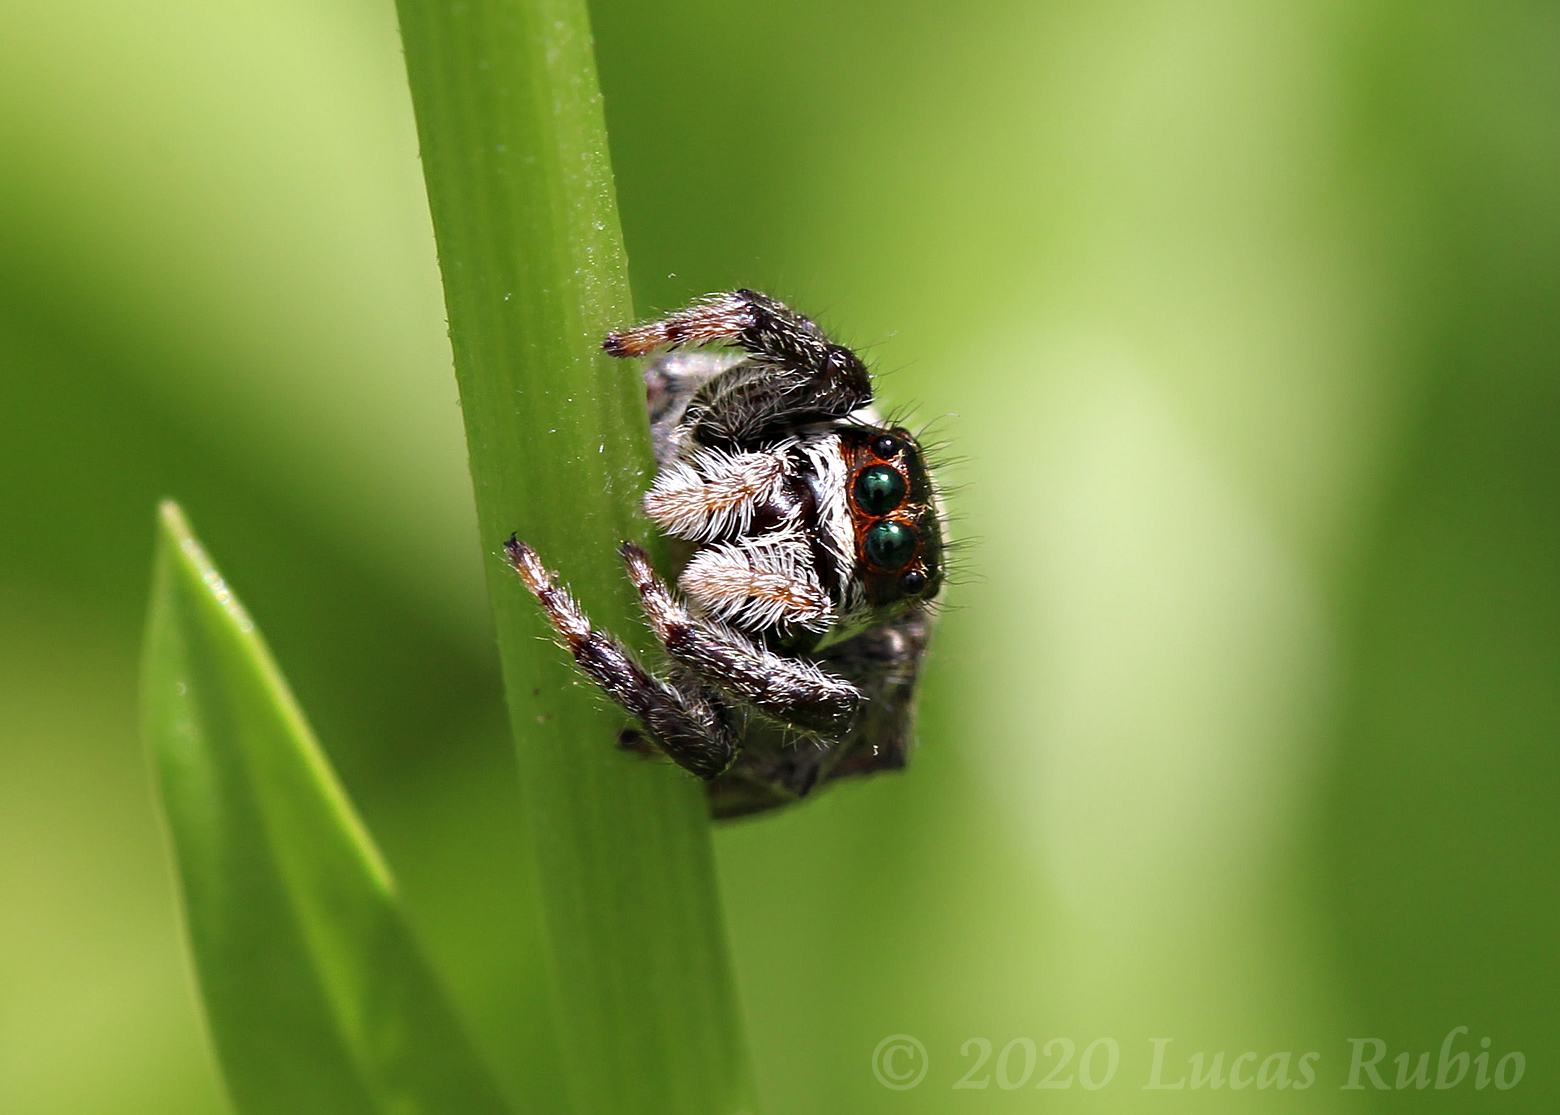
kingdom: Animalia
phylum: Arthropoda
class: Arachnida
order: Araneae
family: Salticidae
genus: Phiale
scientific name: Phiale roburifoliata
